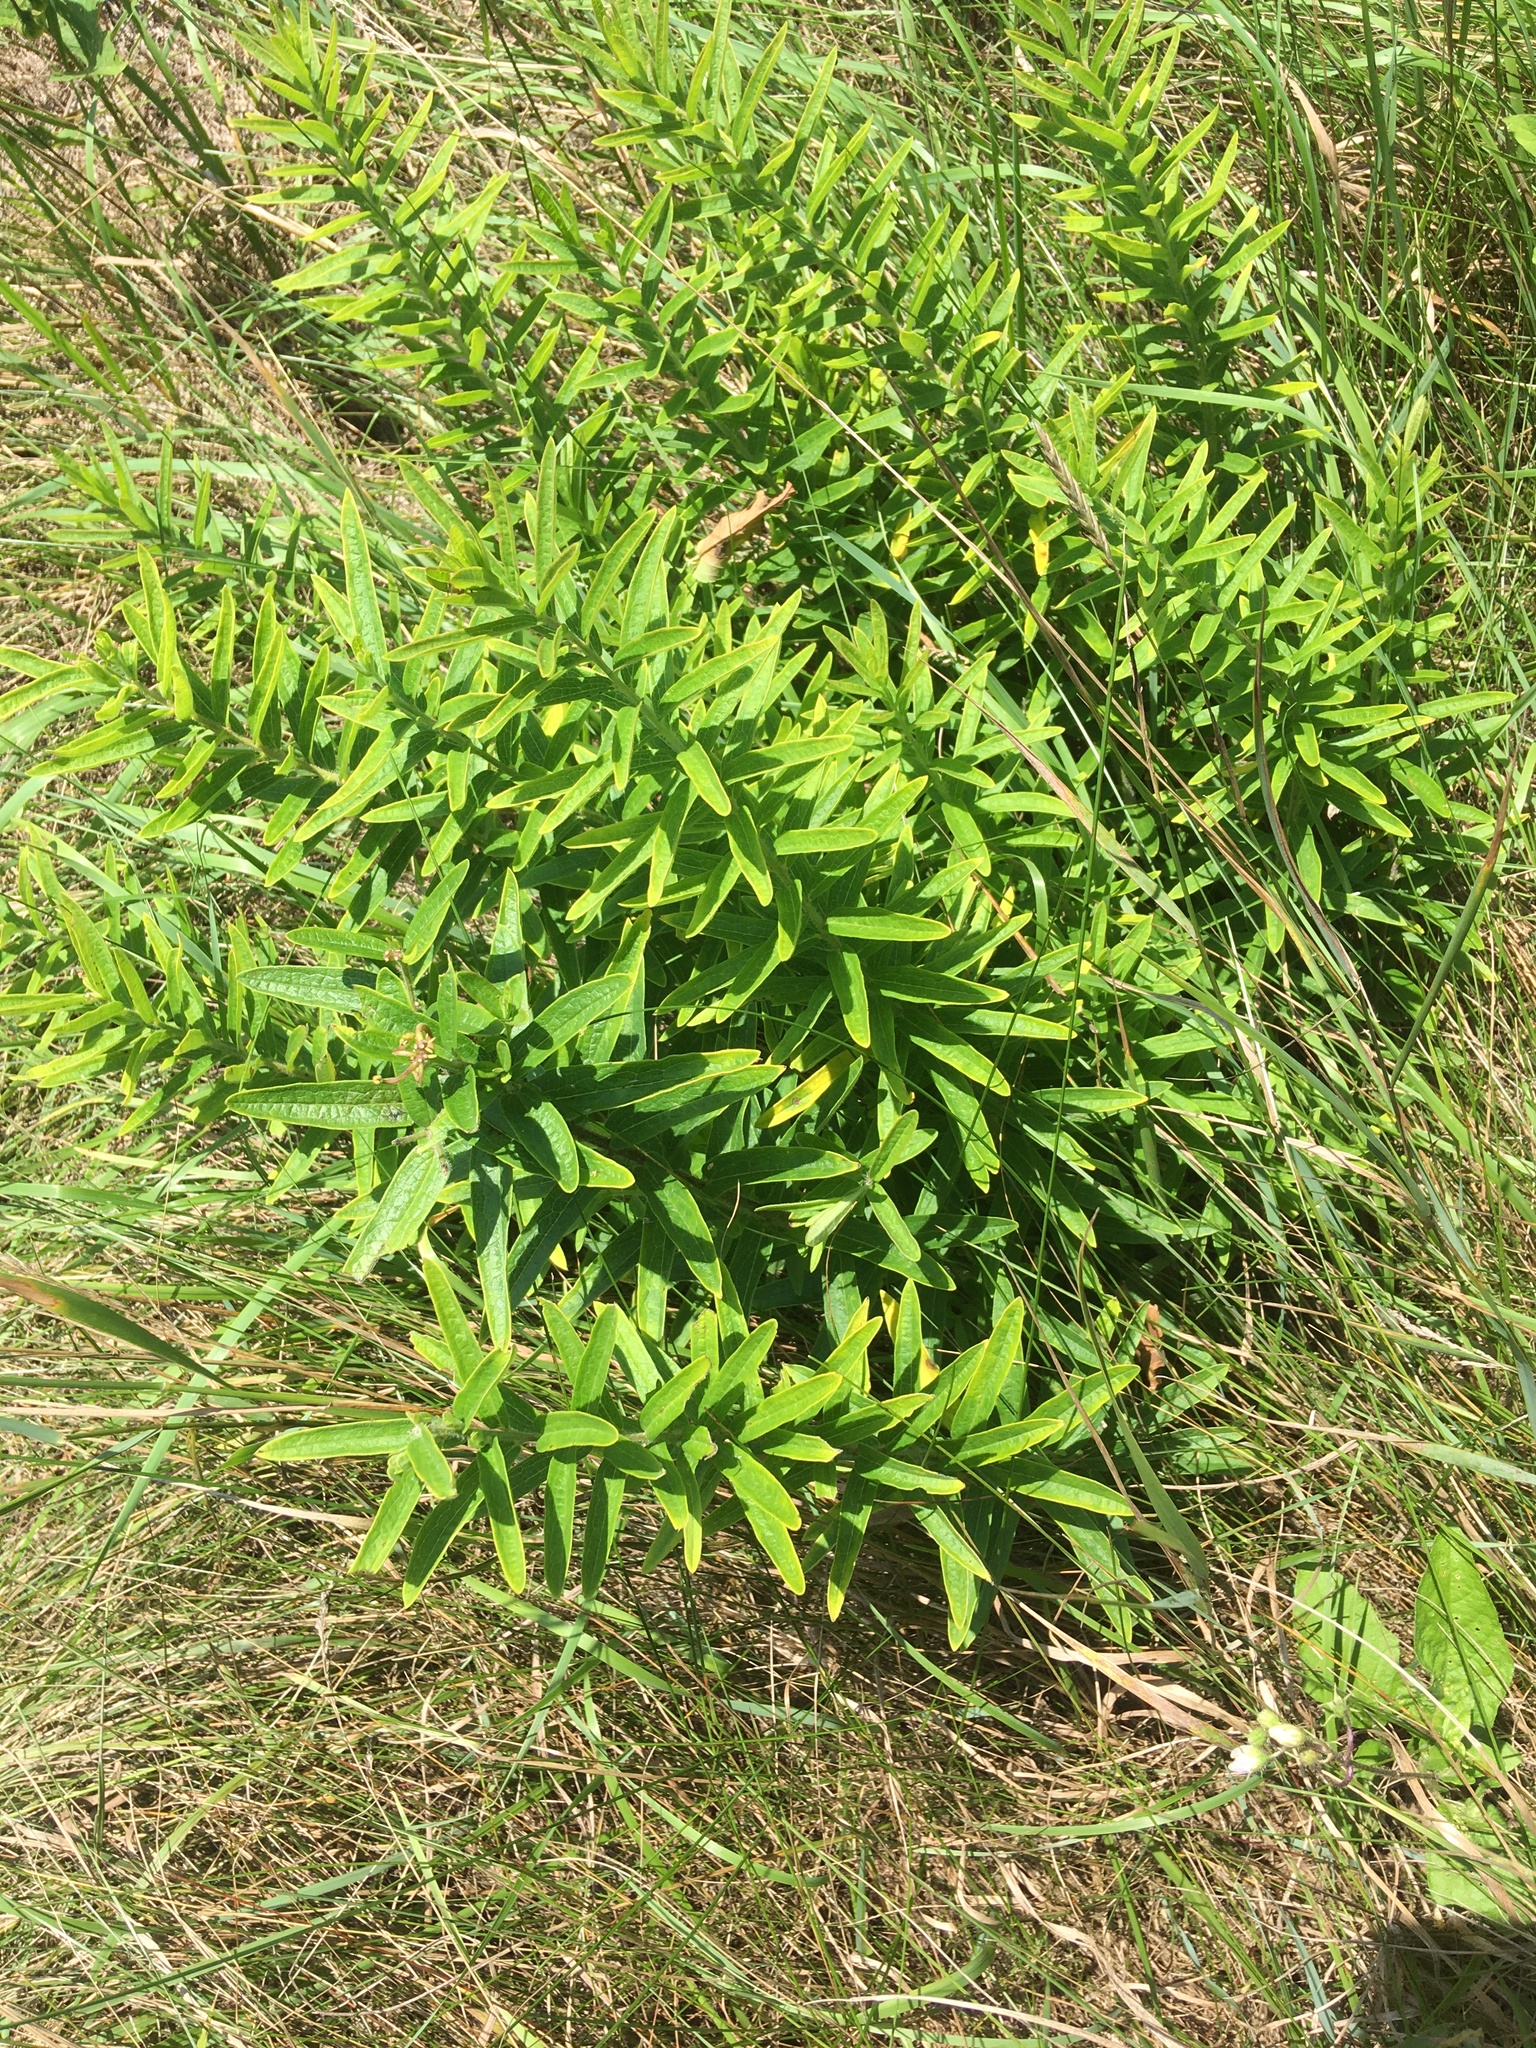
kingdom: Plantae
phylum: Tracheophyta
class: Magnoliopsida
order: Gentianales
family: Apocynaceae
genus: Asclepias
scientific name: Asclepias tuberosa
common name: Butterfly milkweed
